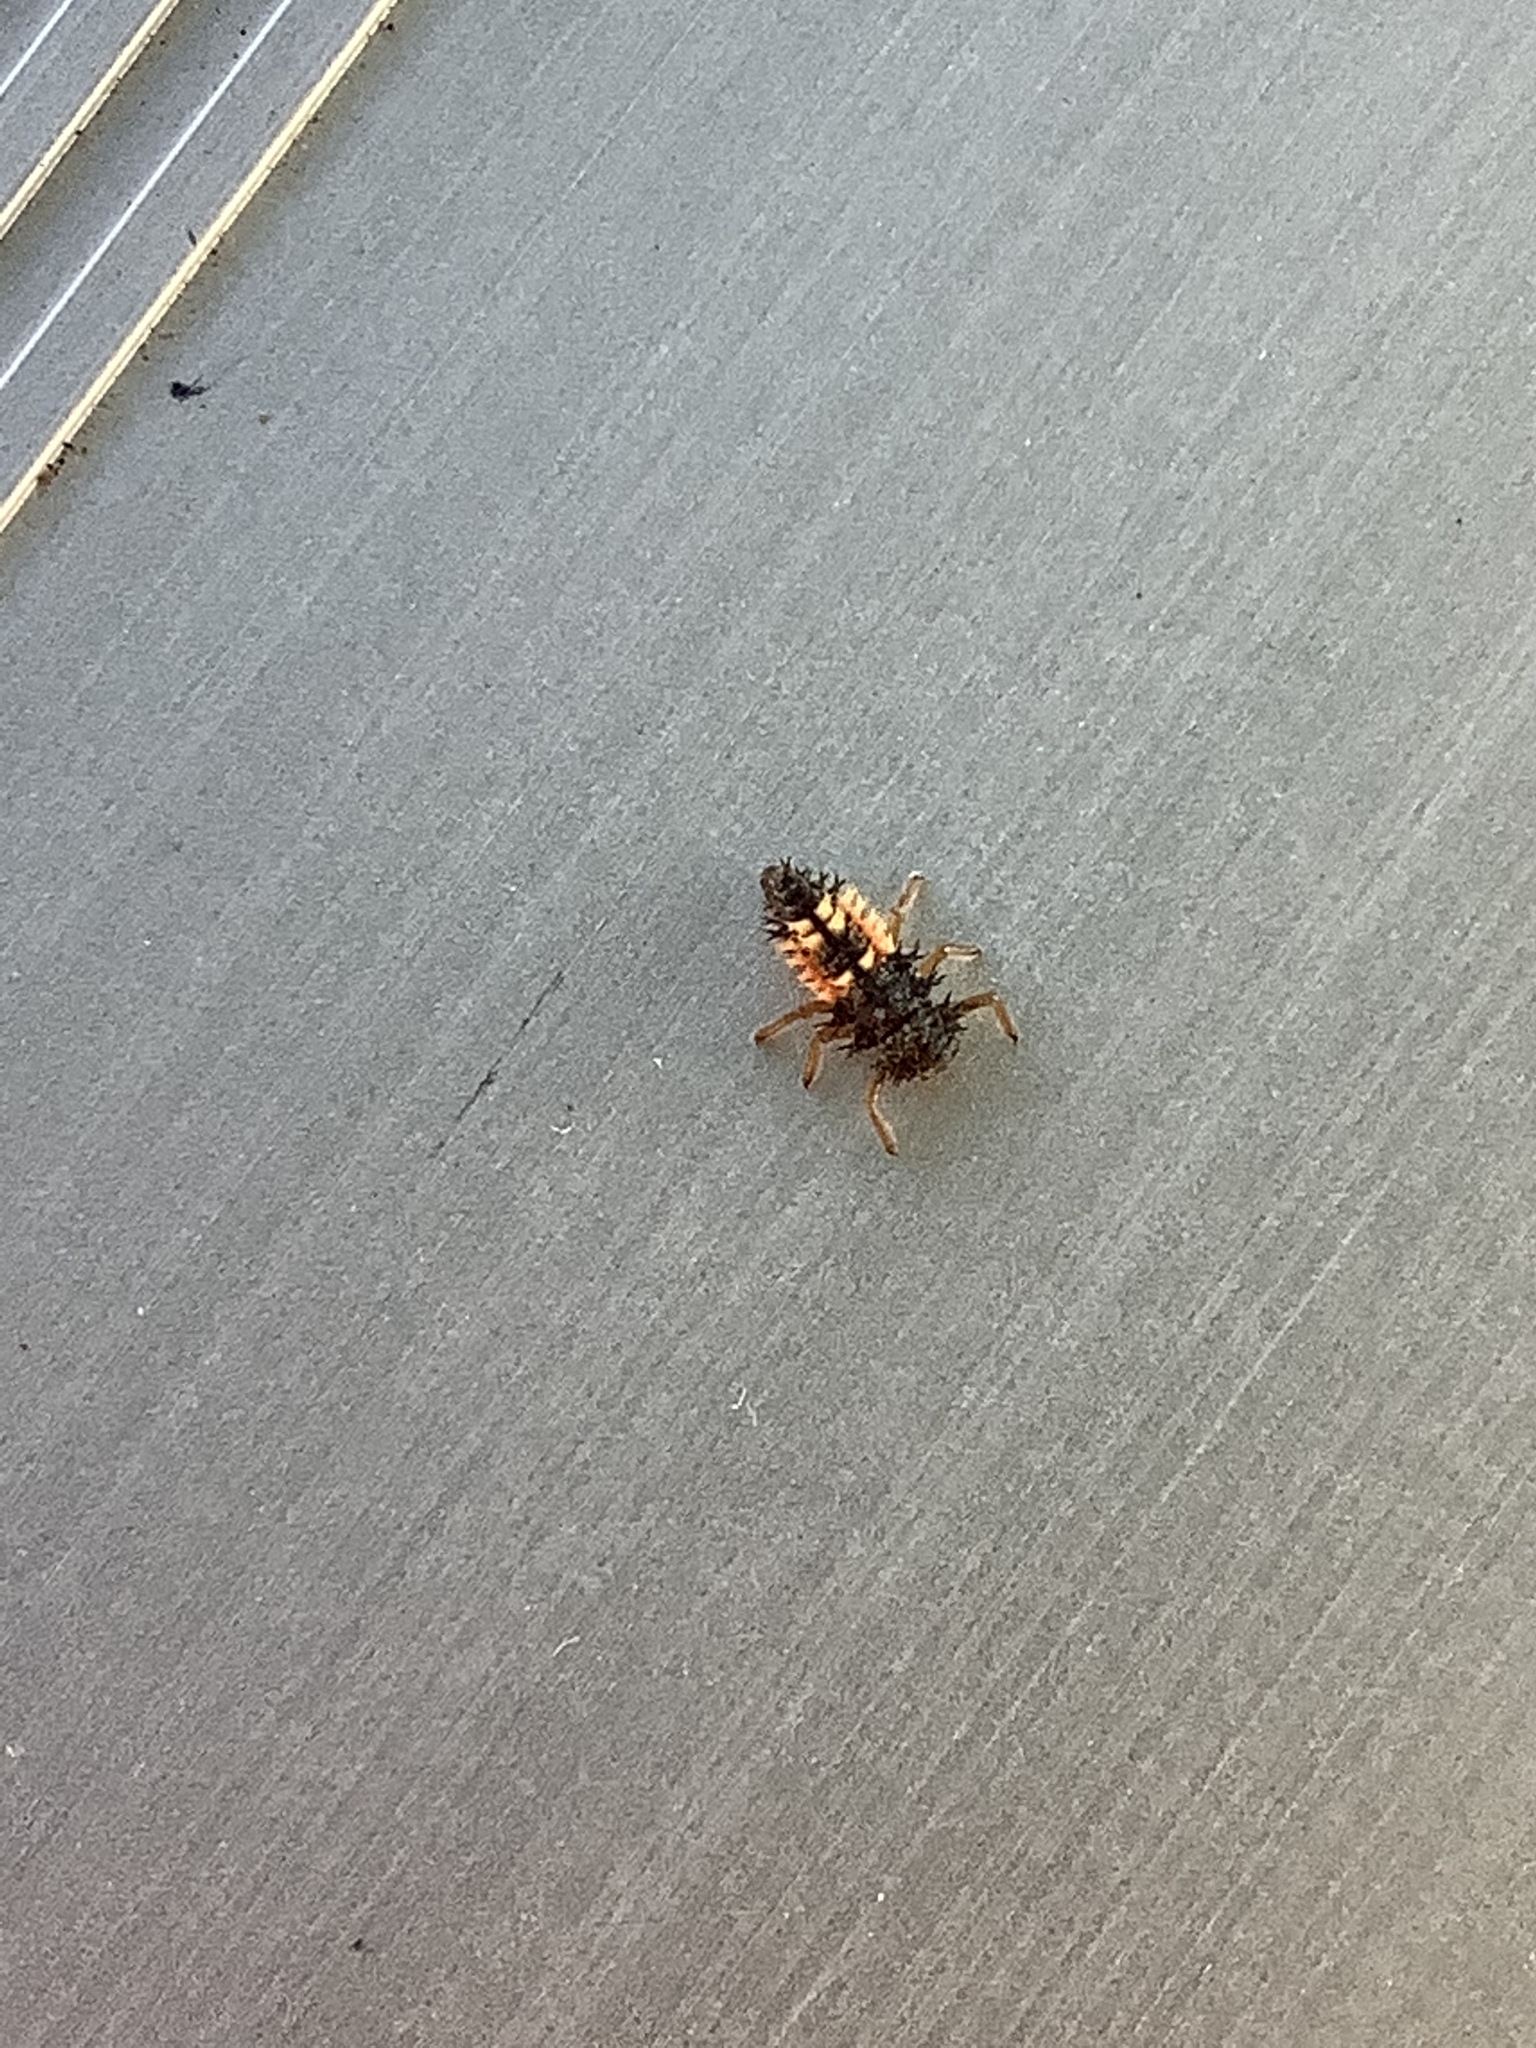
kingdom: Animalia
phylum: Arthropoda
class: Insecta
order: Coleoptera
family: Coccinellidae
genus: Harmonia
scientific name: Harmonia axyridis
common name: Harlequin ladybird
